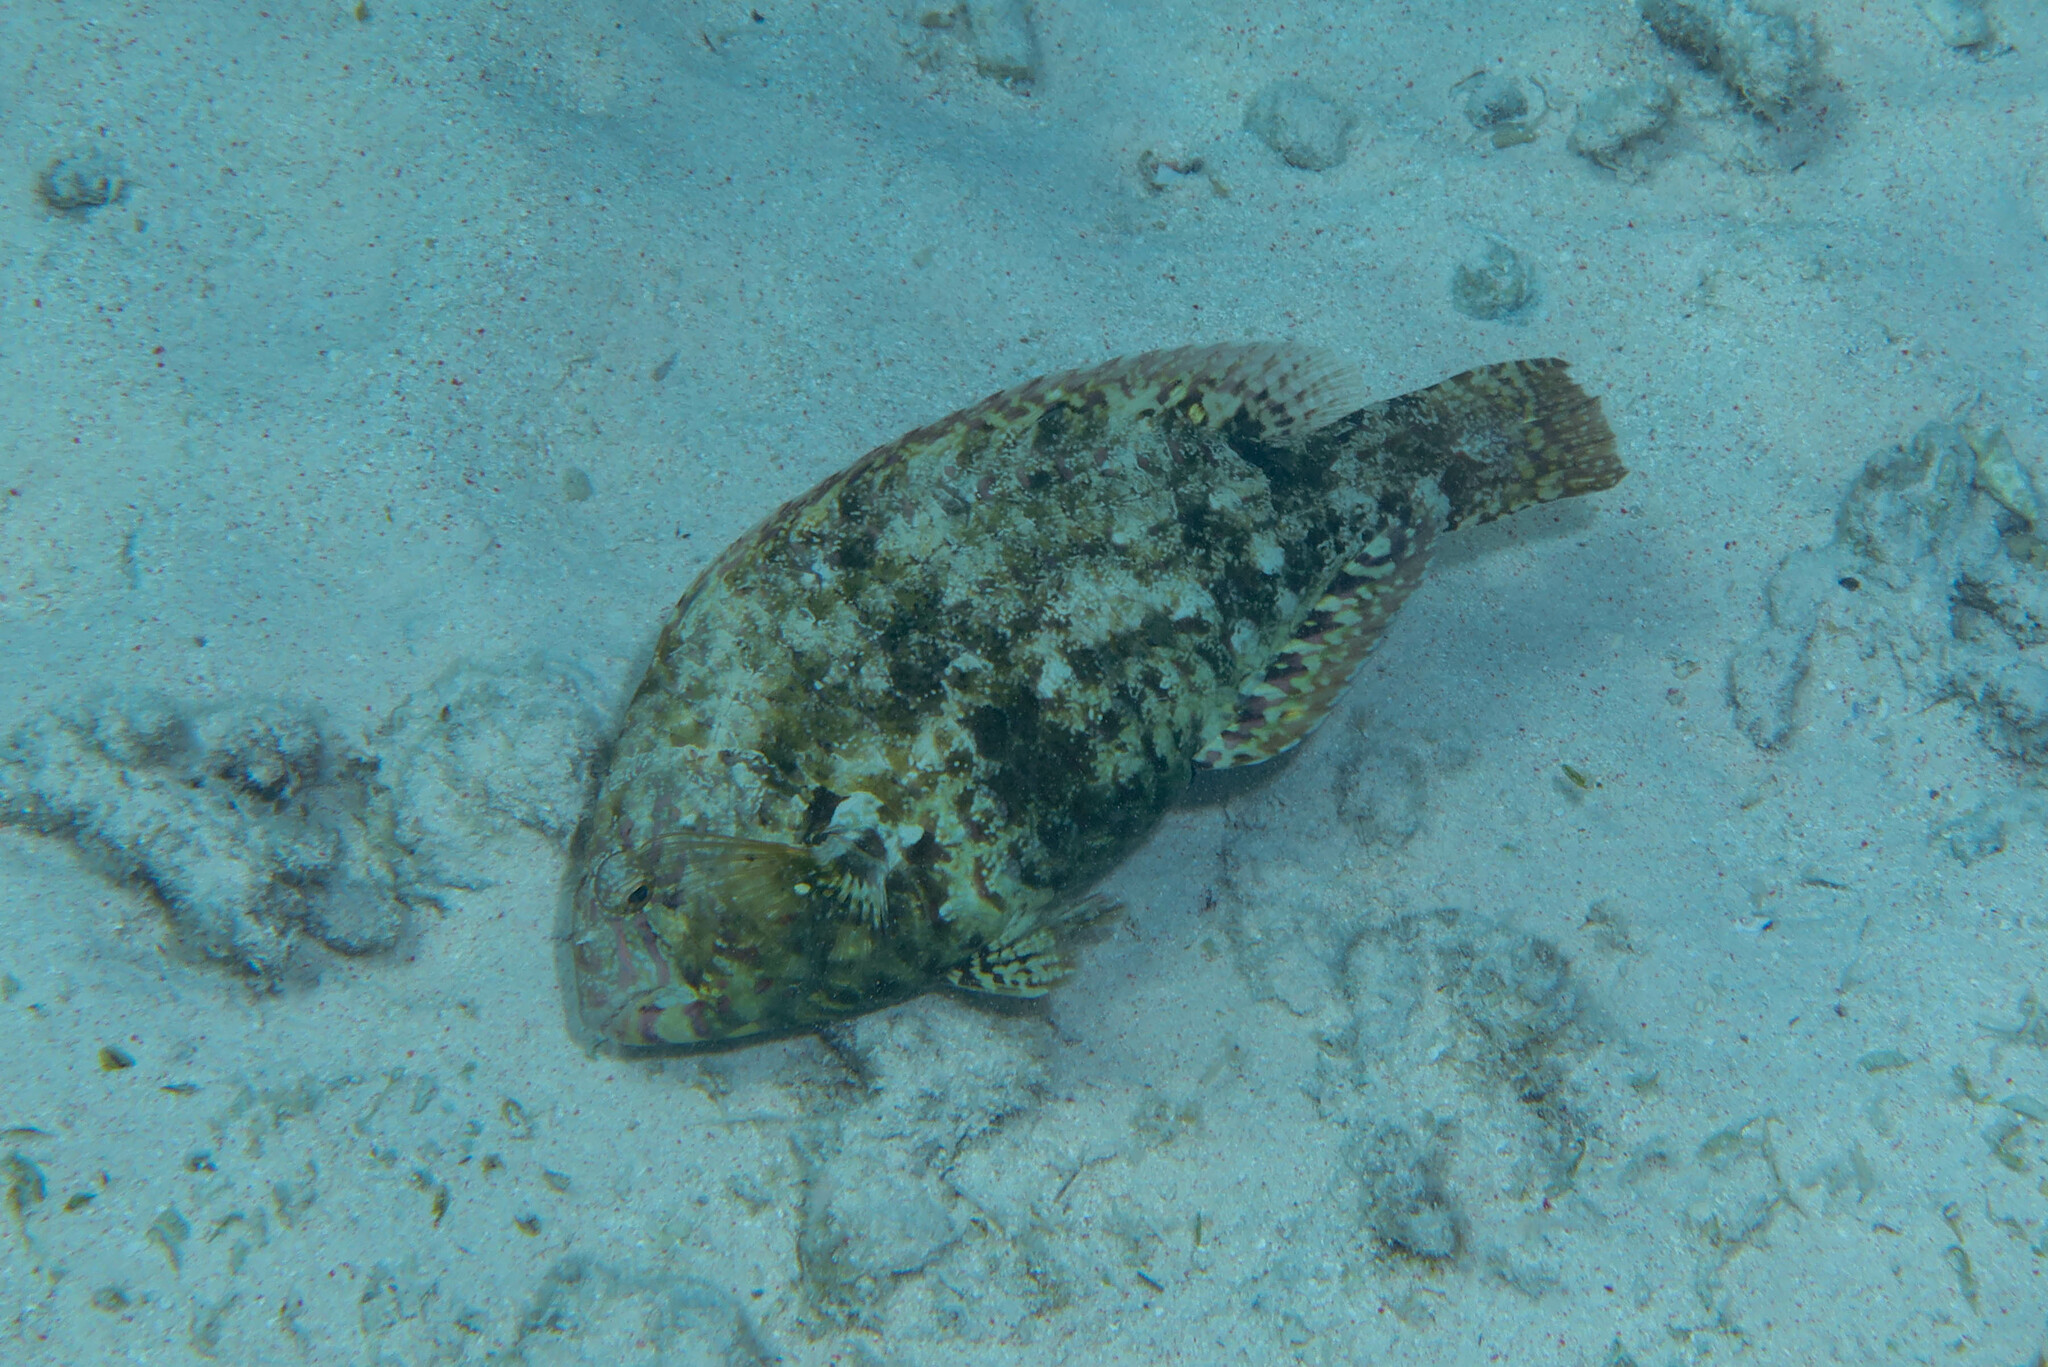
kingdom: Animalia
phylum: Chordata
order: Perciformes
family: Scaridae
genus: Calotomus
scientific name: Calotomus viridescens
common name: Dotted parrotfish
